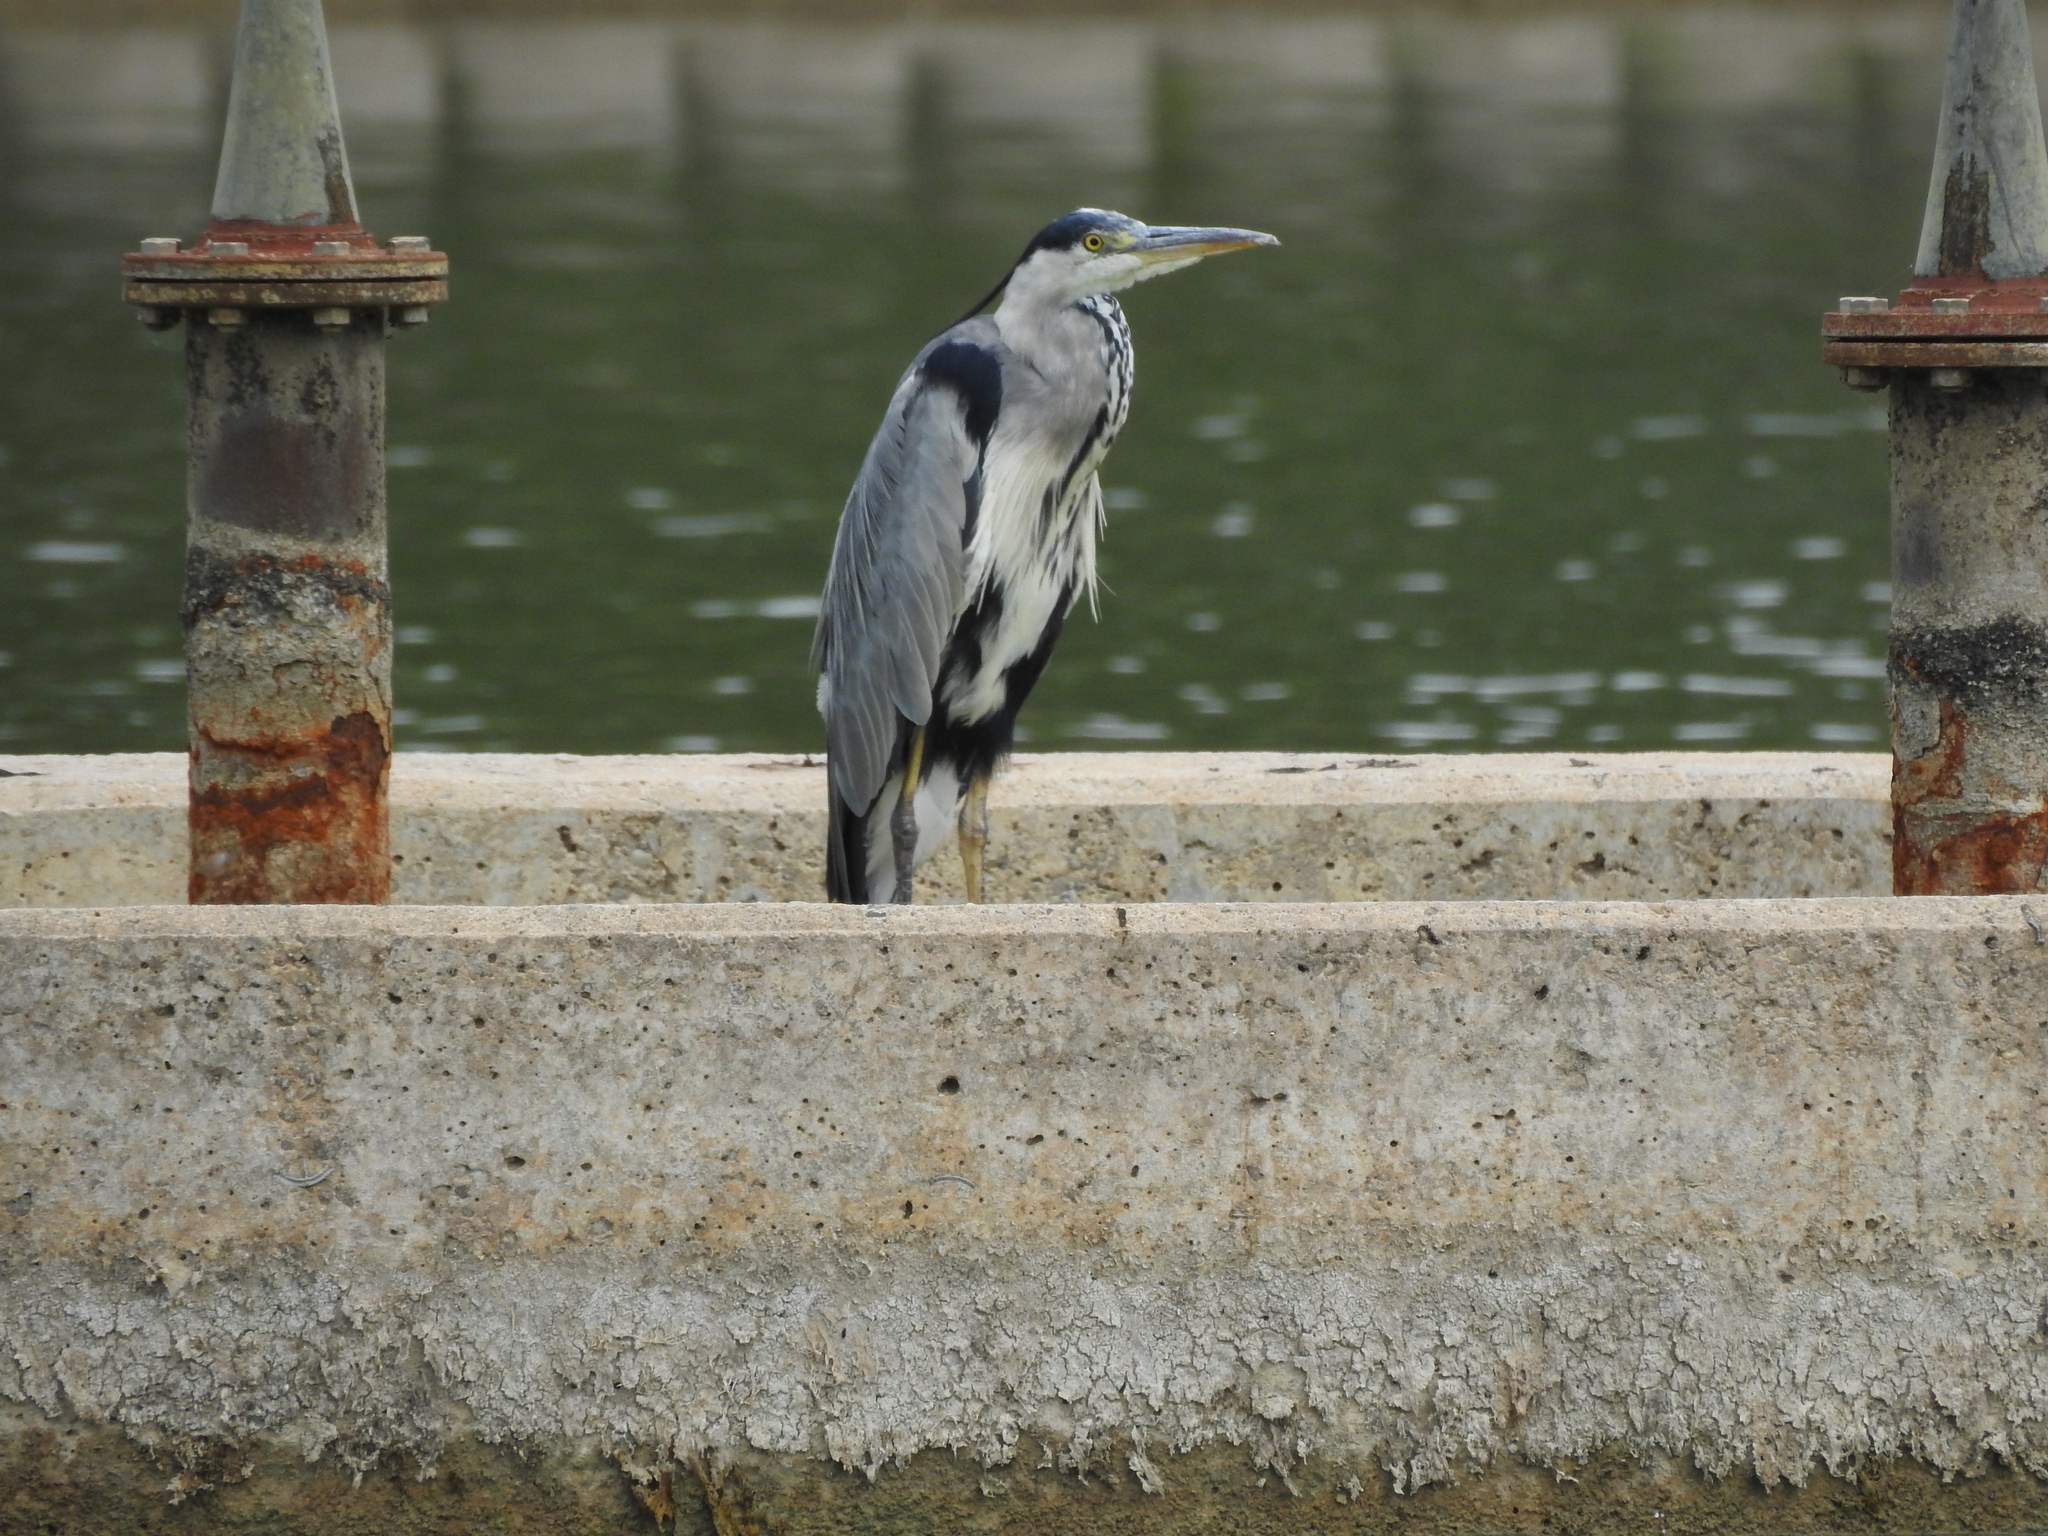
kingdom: Animalia
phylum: Chordata
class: Aves
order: Pelecaniformes
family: Ardeidae
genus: Ardea
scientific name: Ardea cinerea
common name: Grey heron
